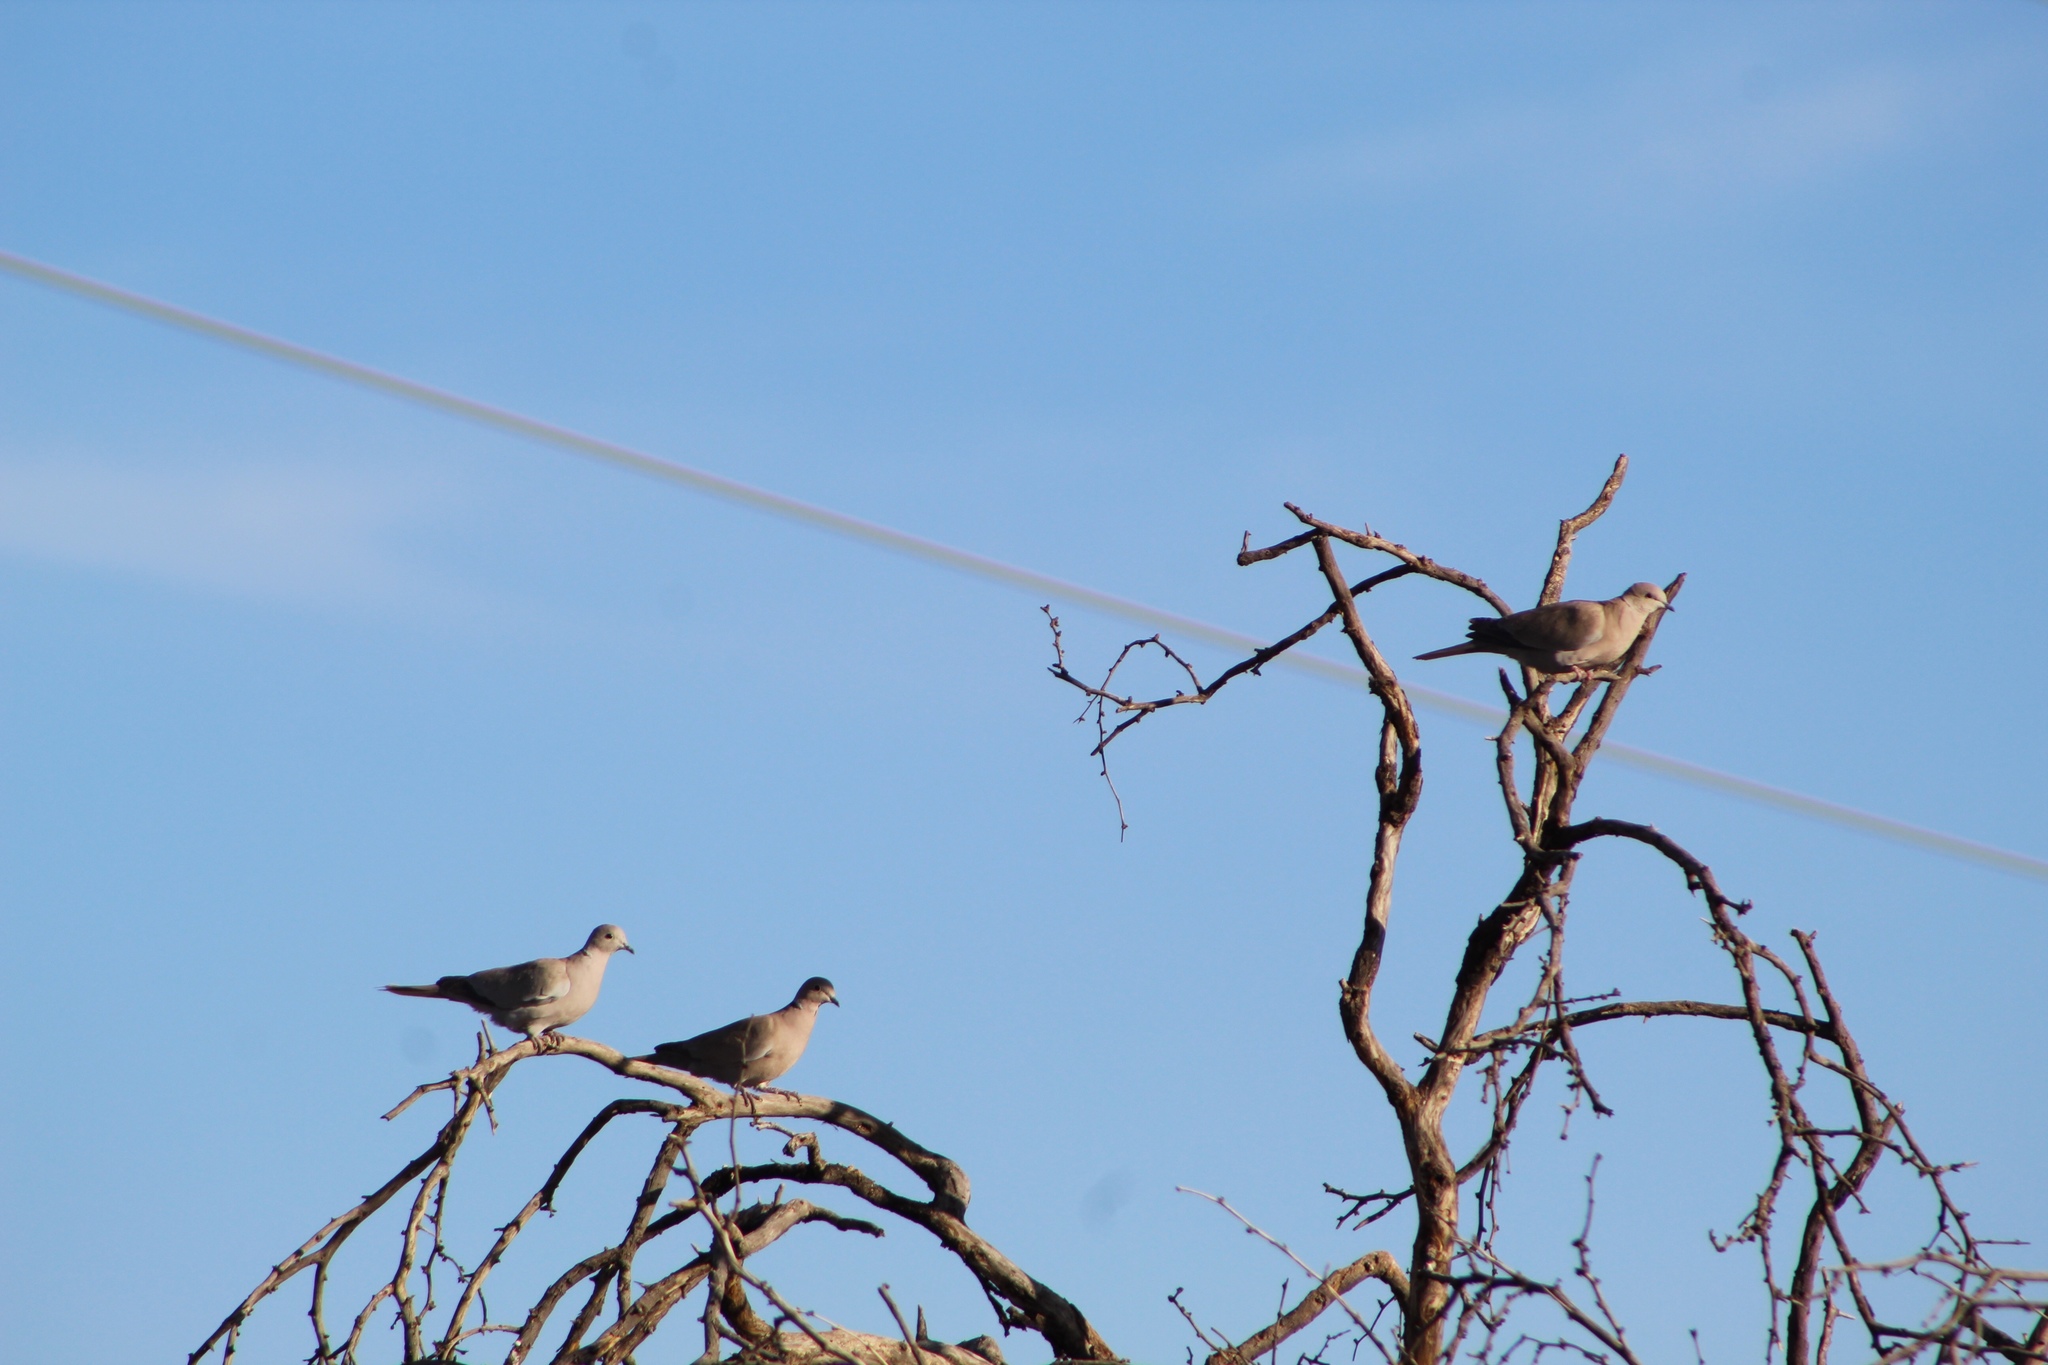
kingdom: Animalia
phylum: Chordata
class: Aves
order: Columbiformes
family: Columbidae
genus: Streptopelia
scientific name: Streptopelia decaocto
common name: Eurasian collared dove
